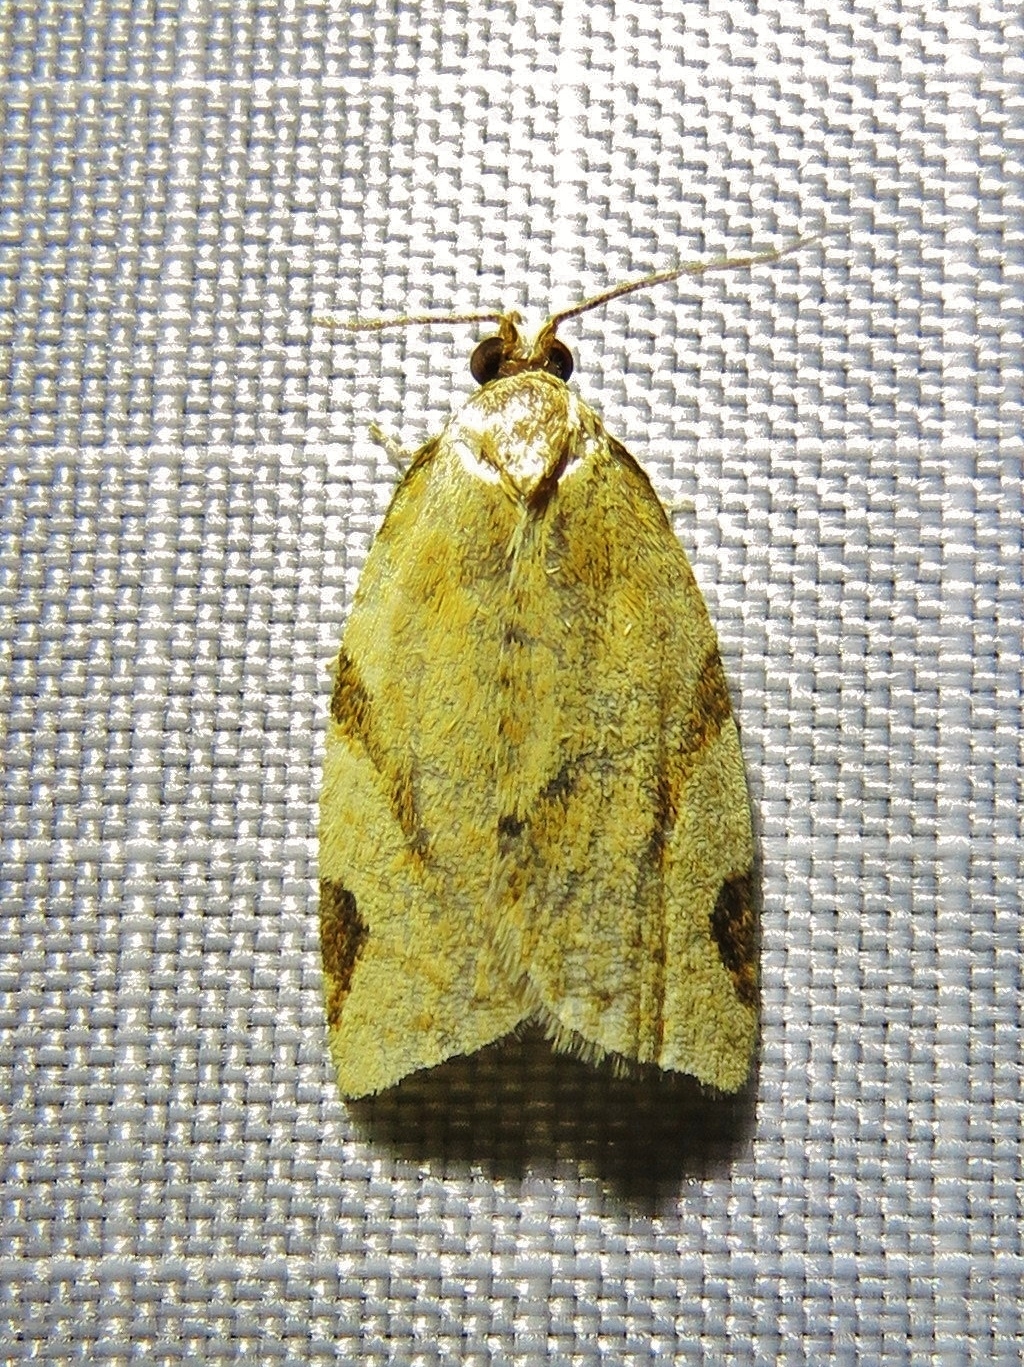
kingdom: Animalia
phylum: Arthropoda
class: Insecta
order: Lepidoptera
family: Tortricidae
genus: Paramesia
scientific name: Paramesia gnomana
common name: Small straw twist
